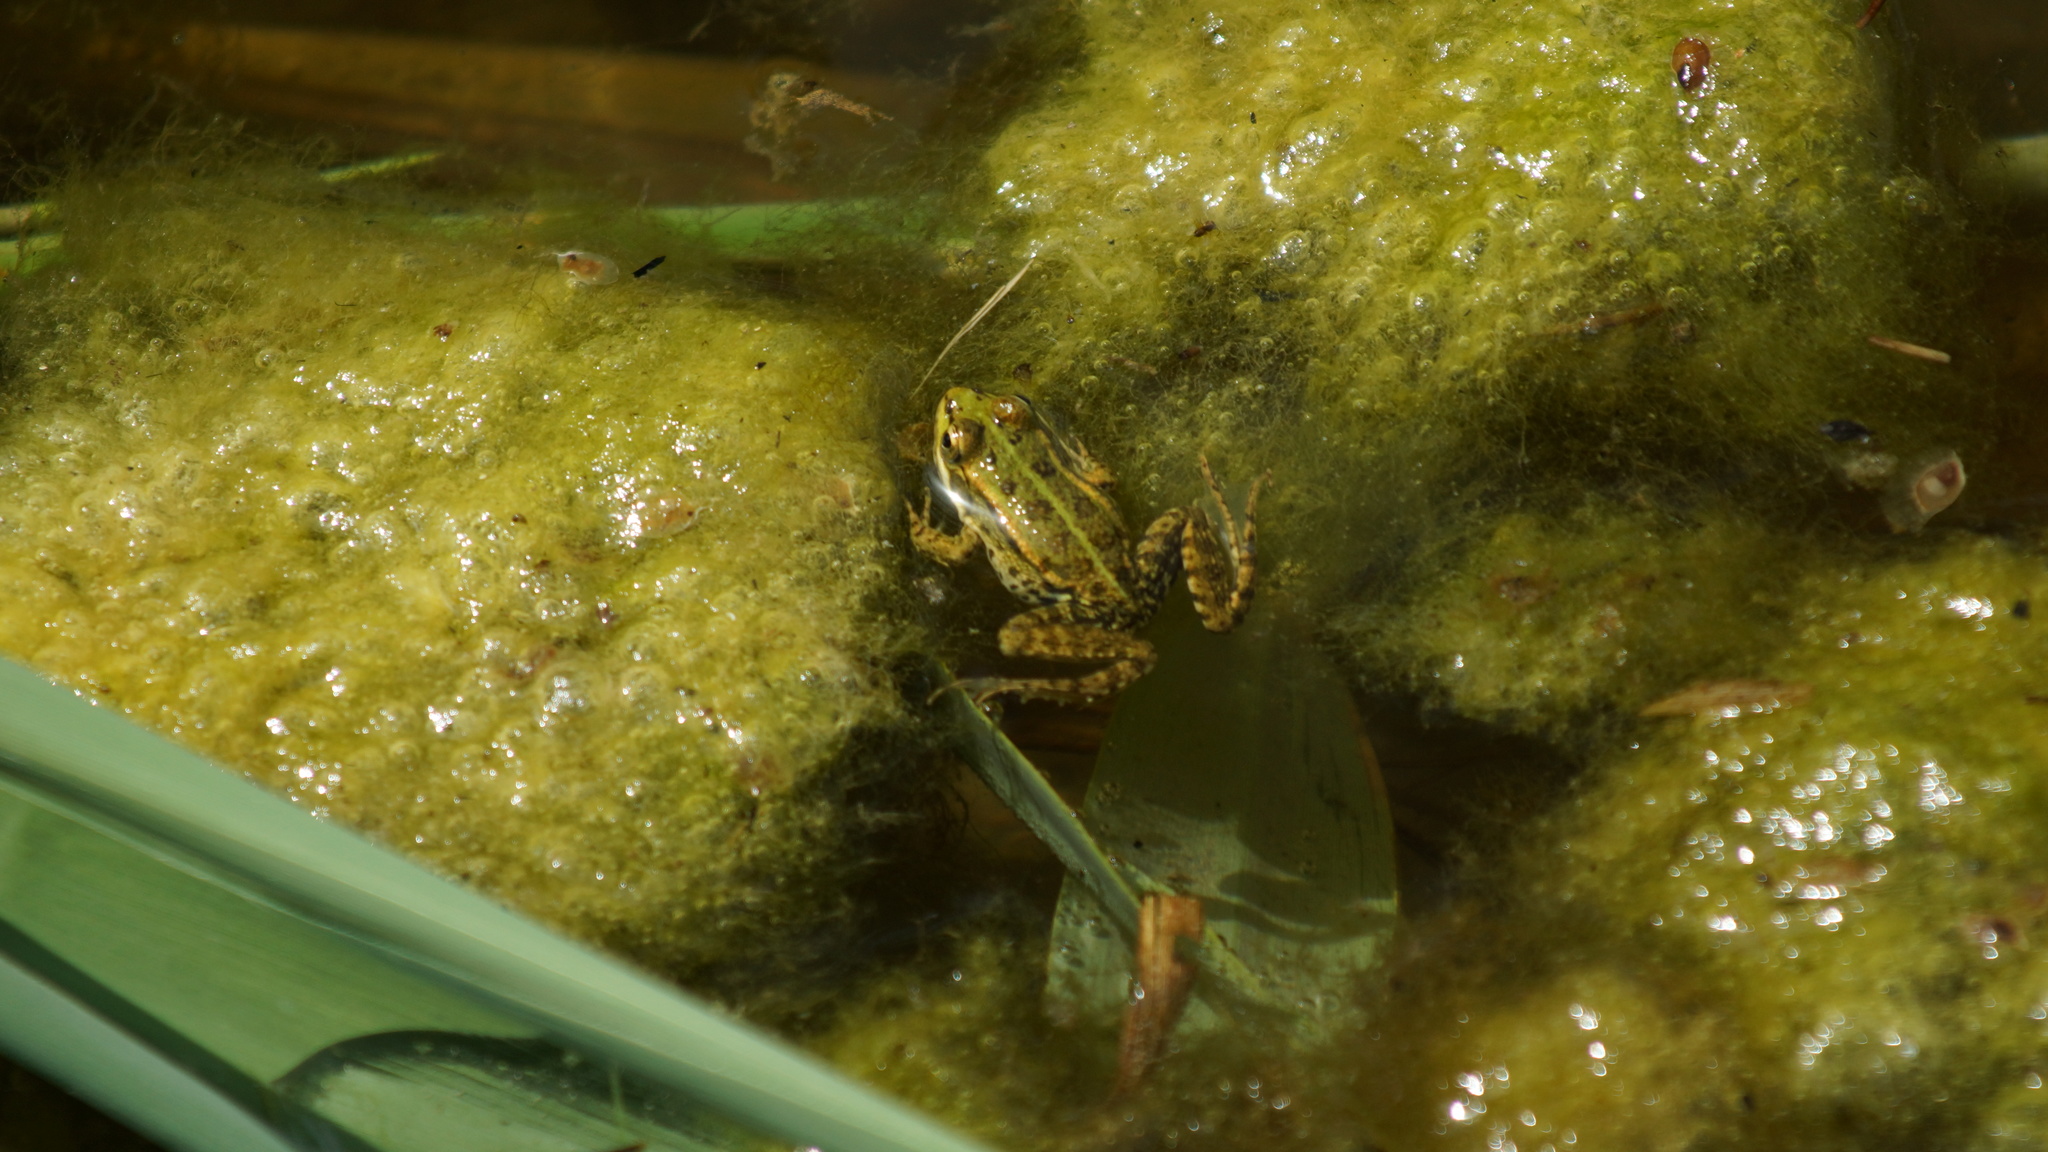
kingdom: Animalia
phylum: Chordata
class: Amphibia
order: Anura
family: Ranidae
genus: Pelophylax
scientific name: Pelophylax ridibundus
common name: Marsh frog
